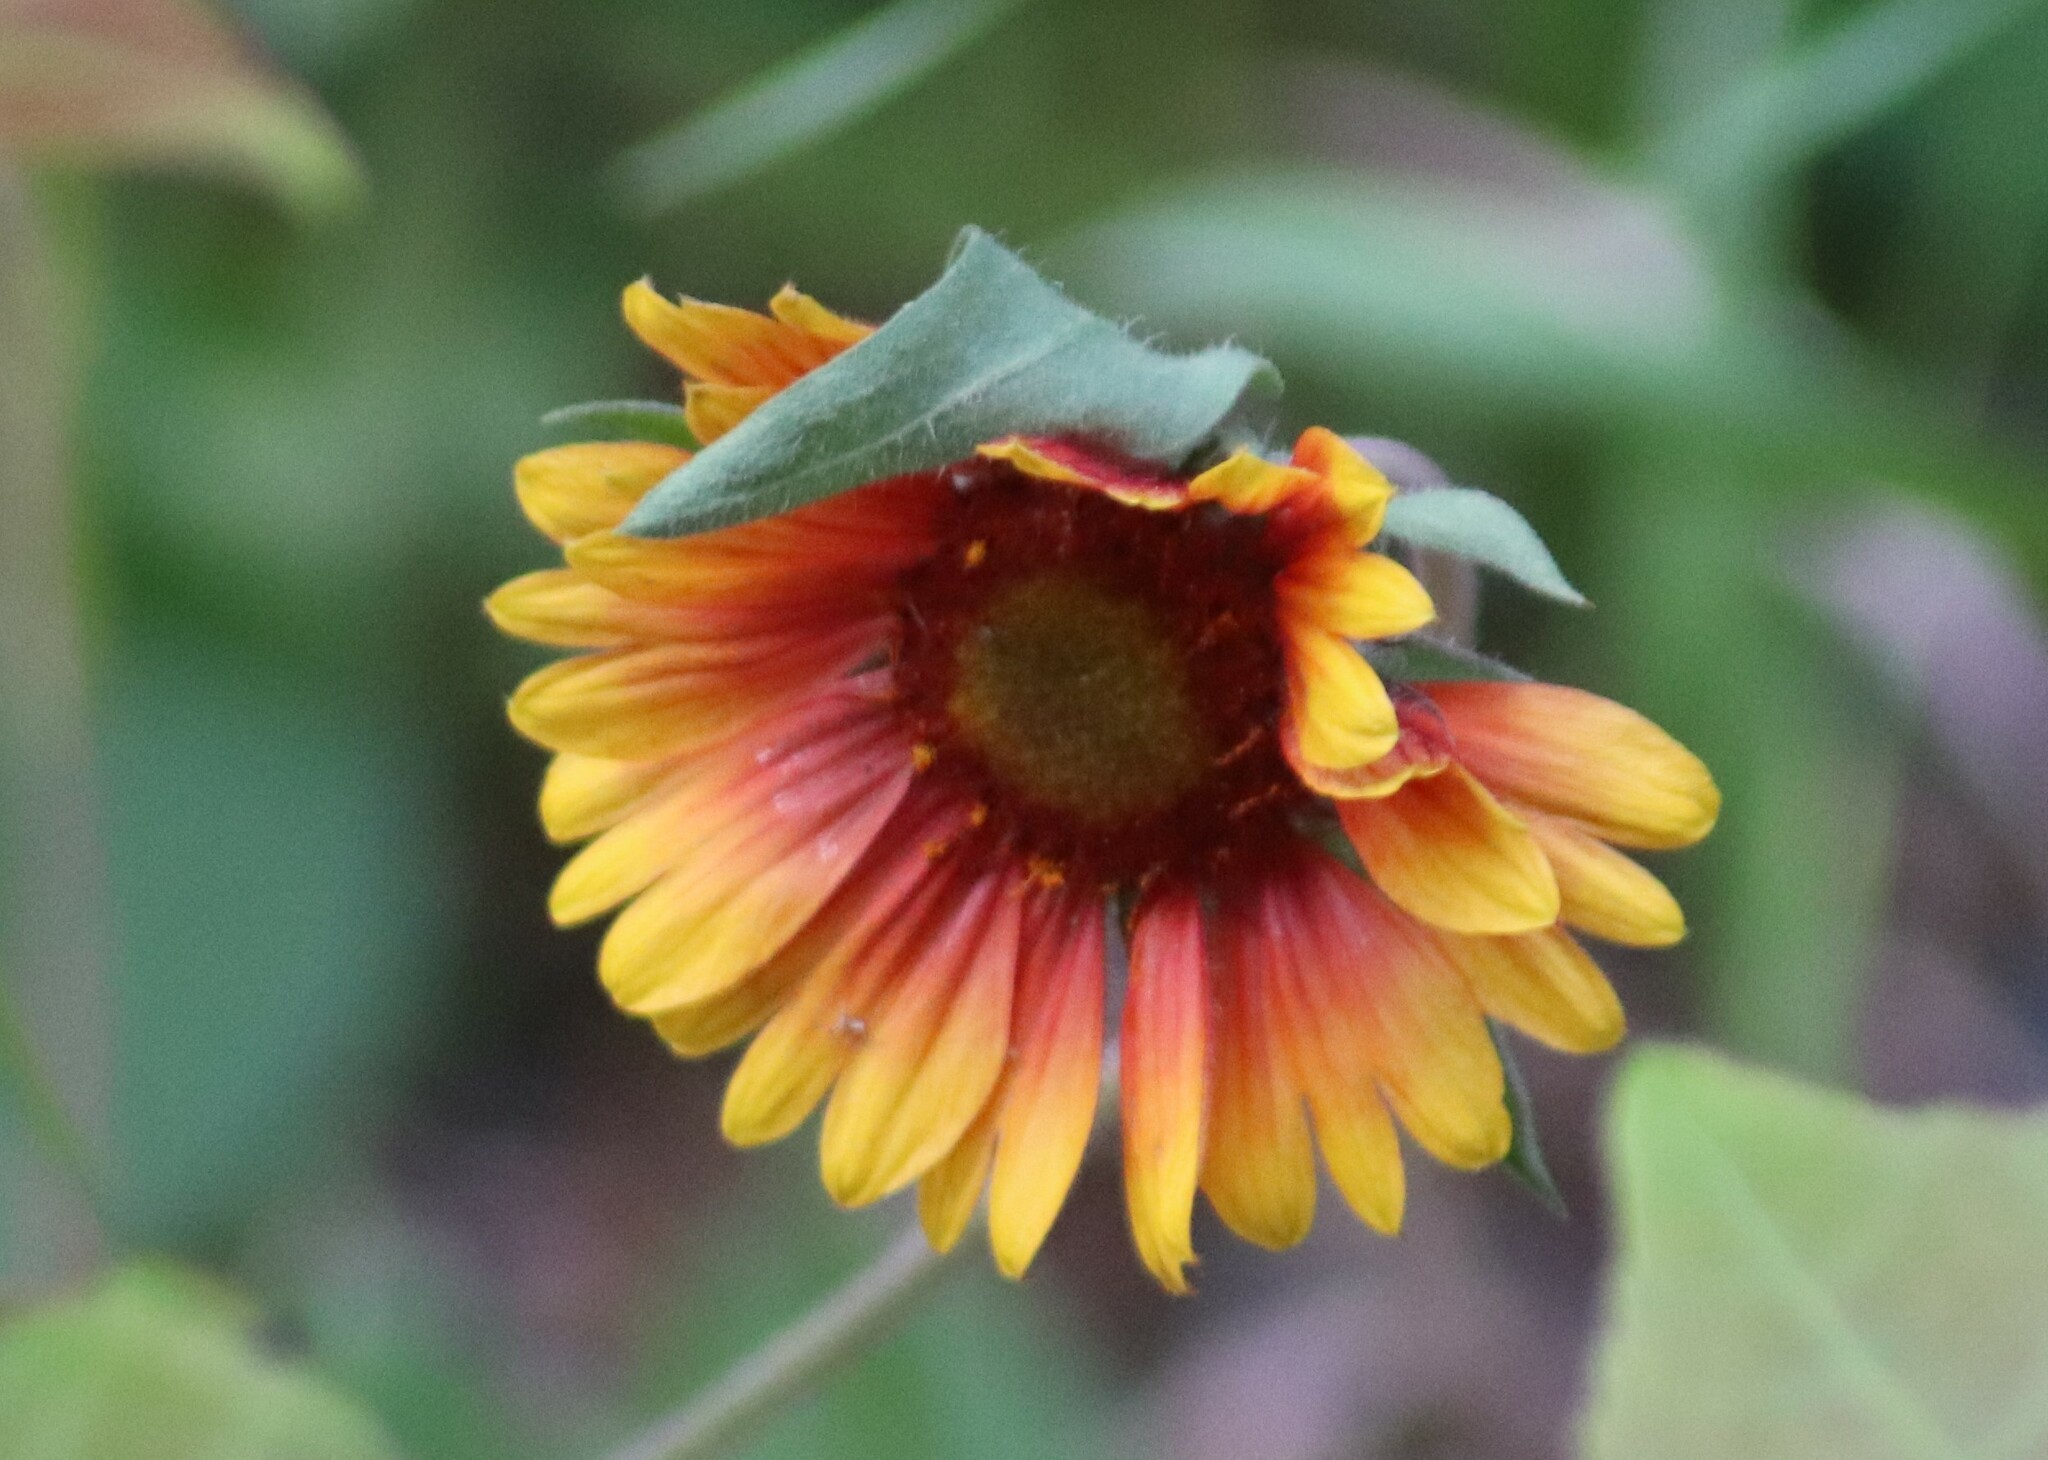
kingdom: Plantae
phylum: Tracheophyta
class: Magnoliopsida
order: Asterales
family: Asteraceae
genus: Gaillardia
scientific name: Gaillardia aristata
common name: Blanket-flower
